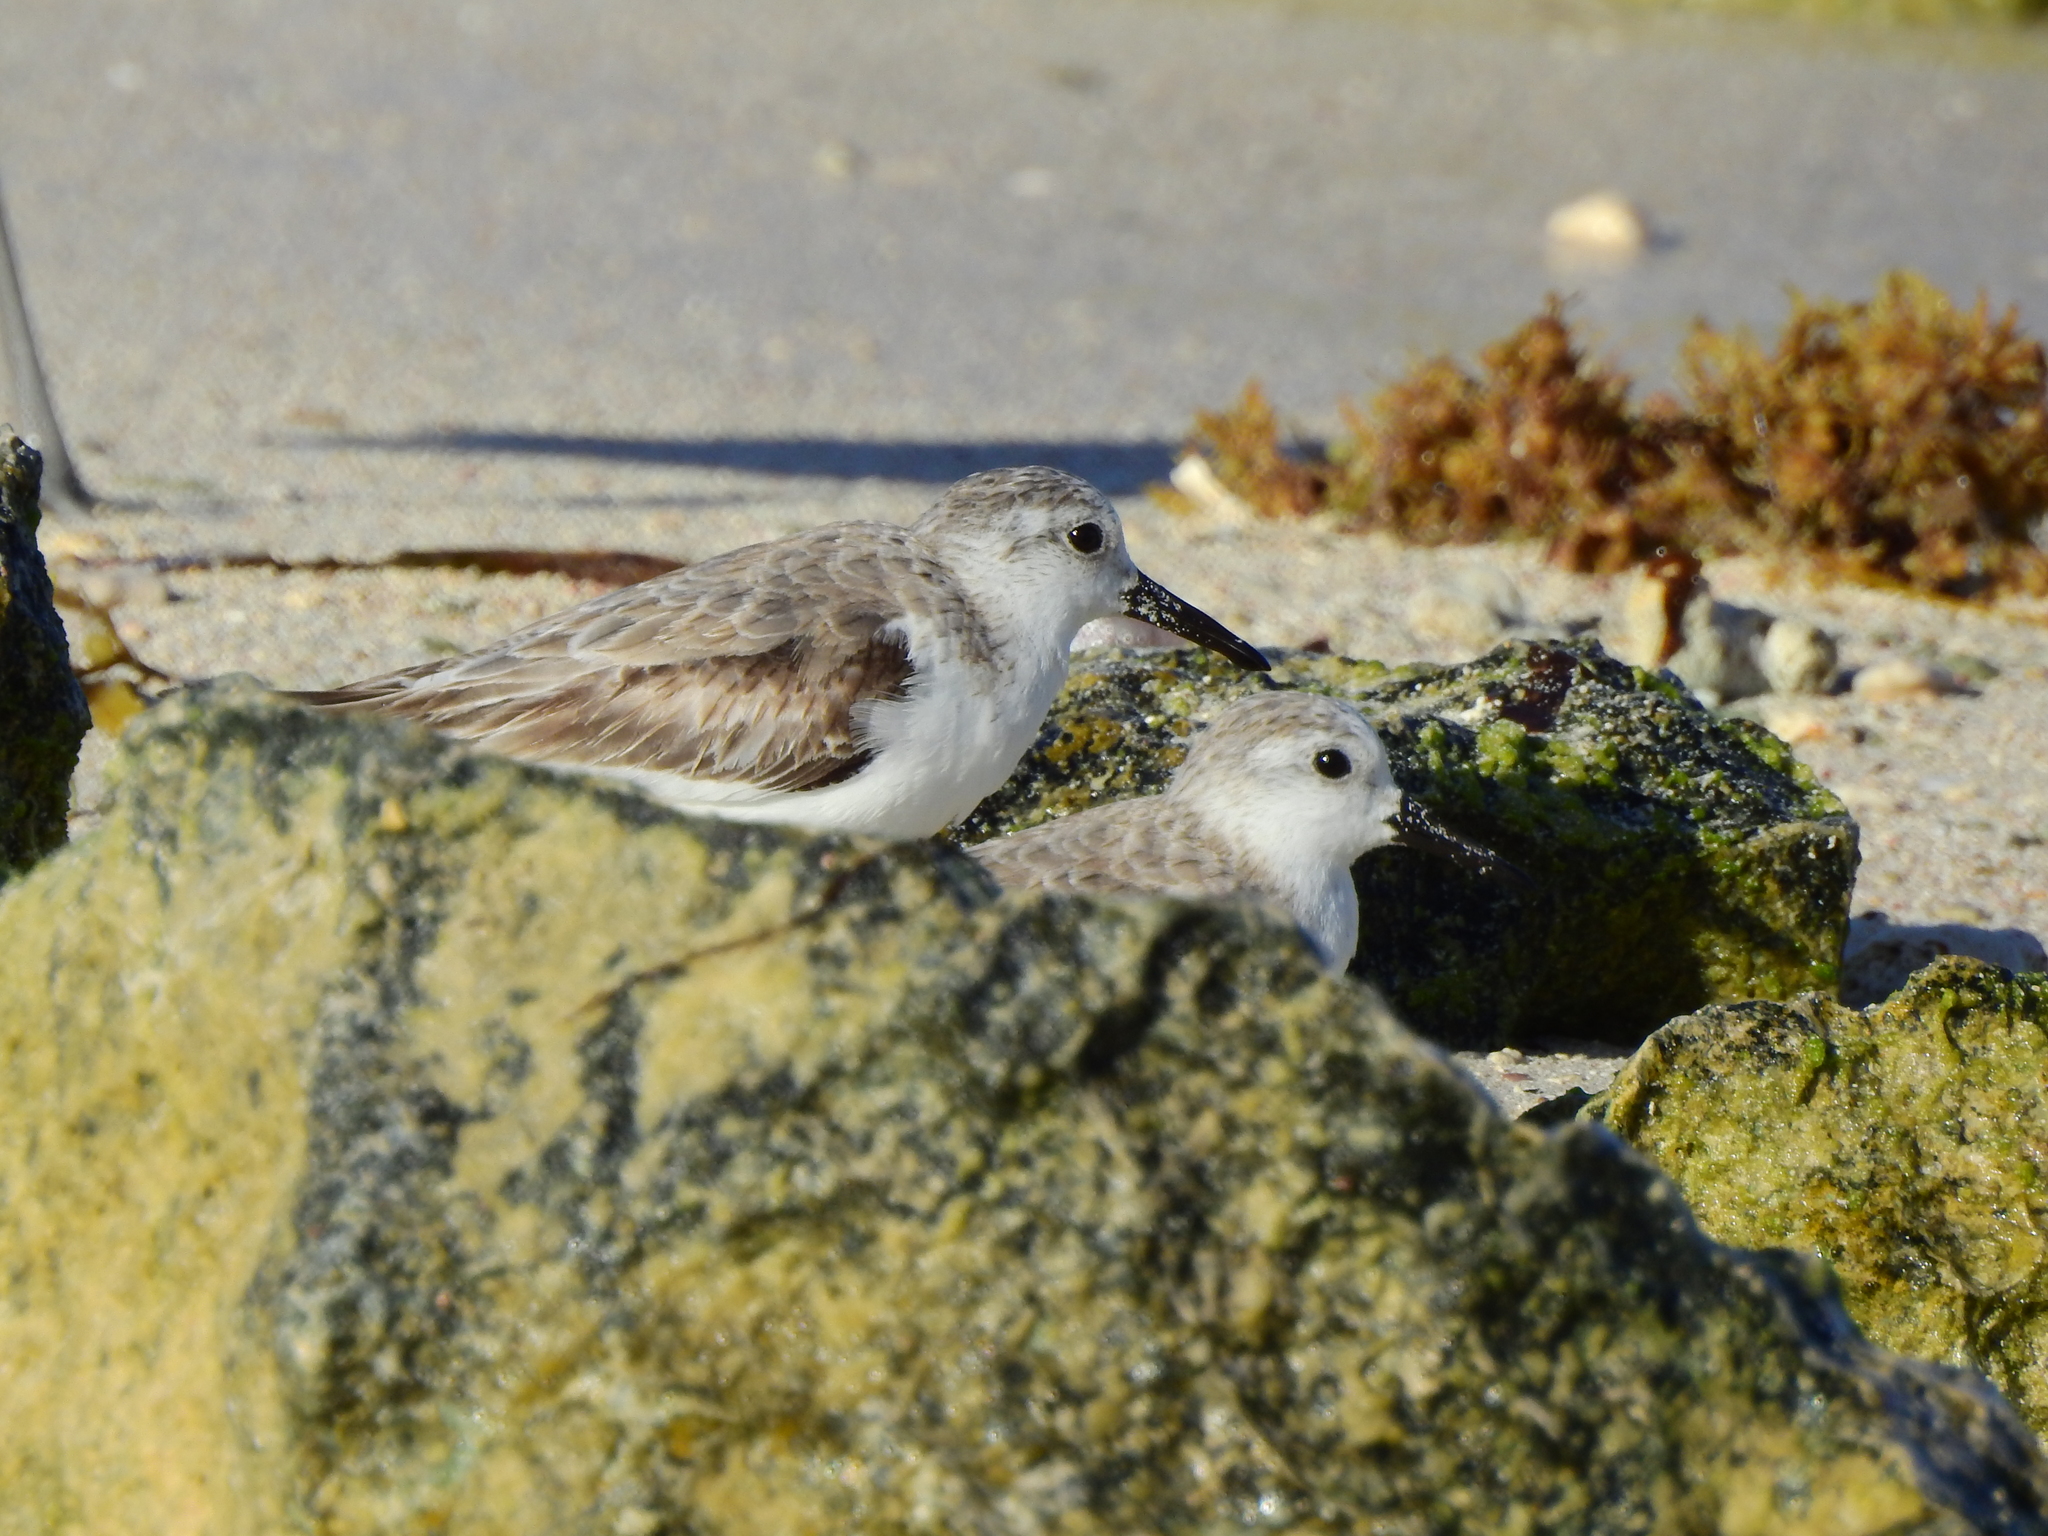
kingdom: Animalia
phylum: Chordata
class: Aves
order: Charadriiformes
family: Scolopacidae
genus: Calidris
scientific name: Calidris alba
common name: Sanderling
